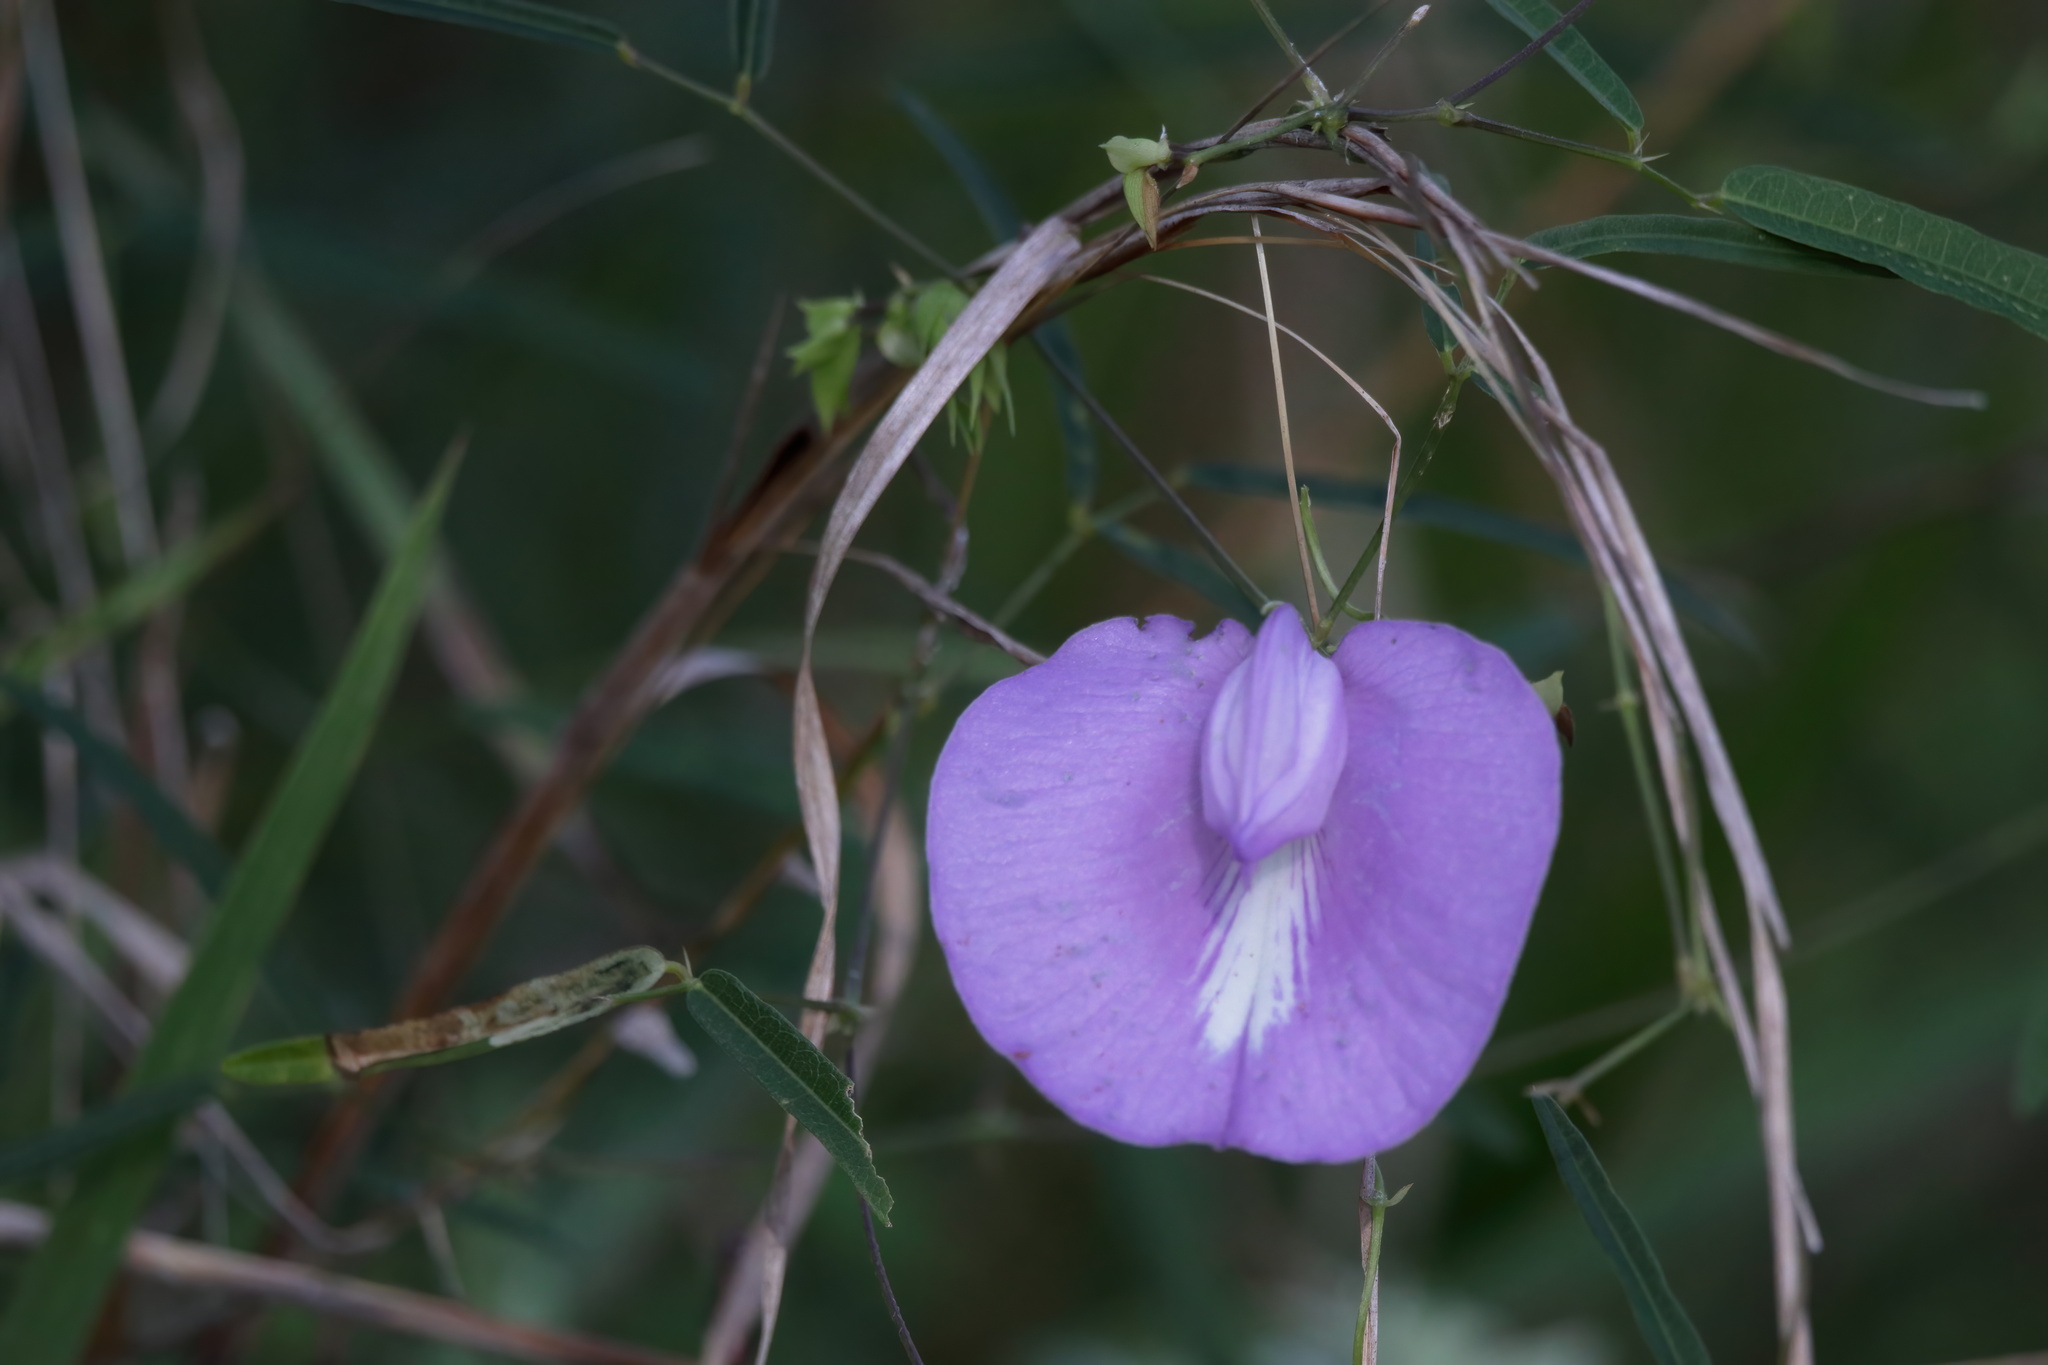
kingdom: Plantae
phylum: Tracheophyta
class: Magnoliopsida
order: Fabales
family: Fabaceae
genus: Centrosema
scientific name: Centrosema virginianum
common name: Butterfly-pea
